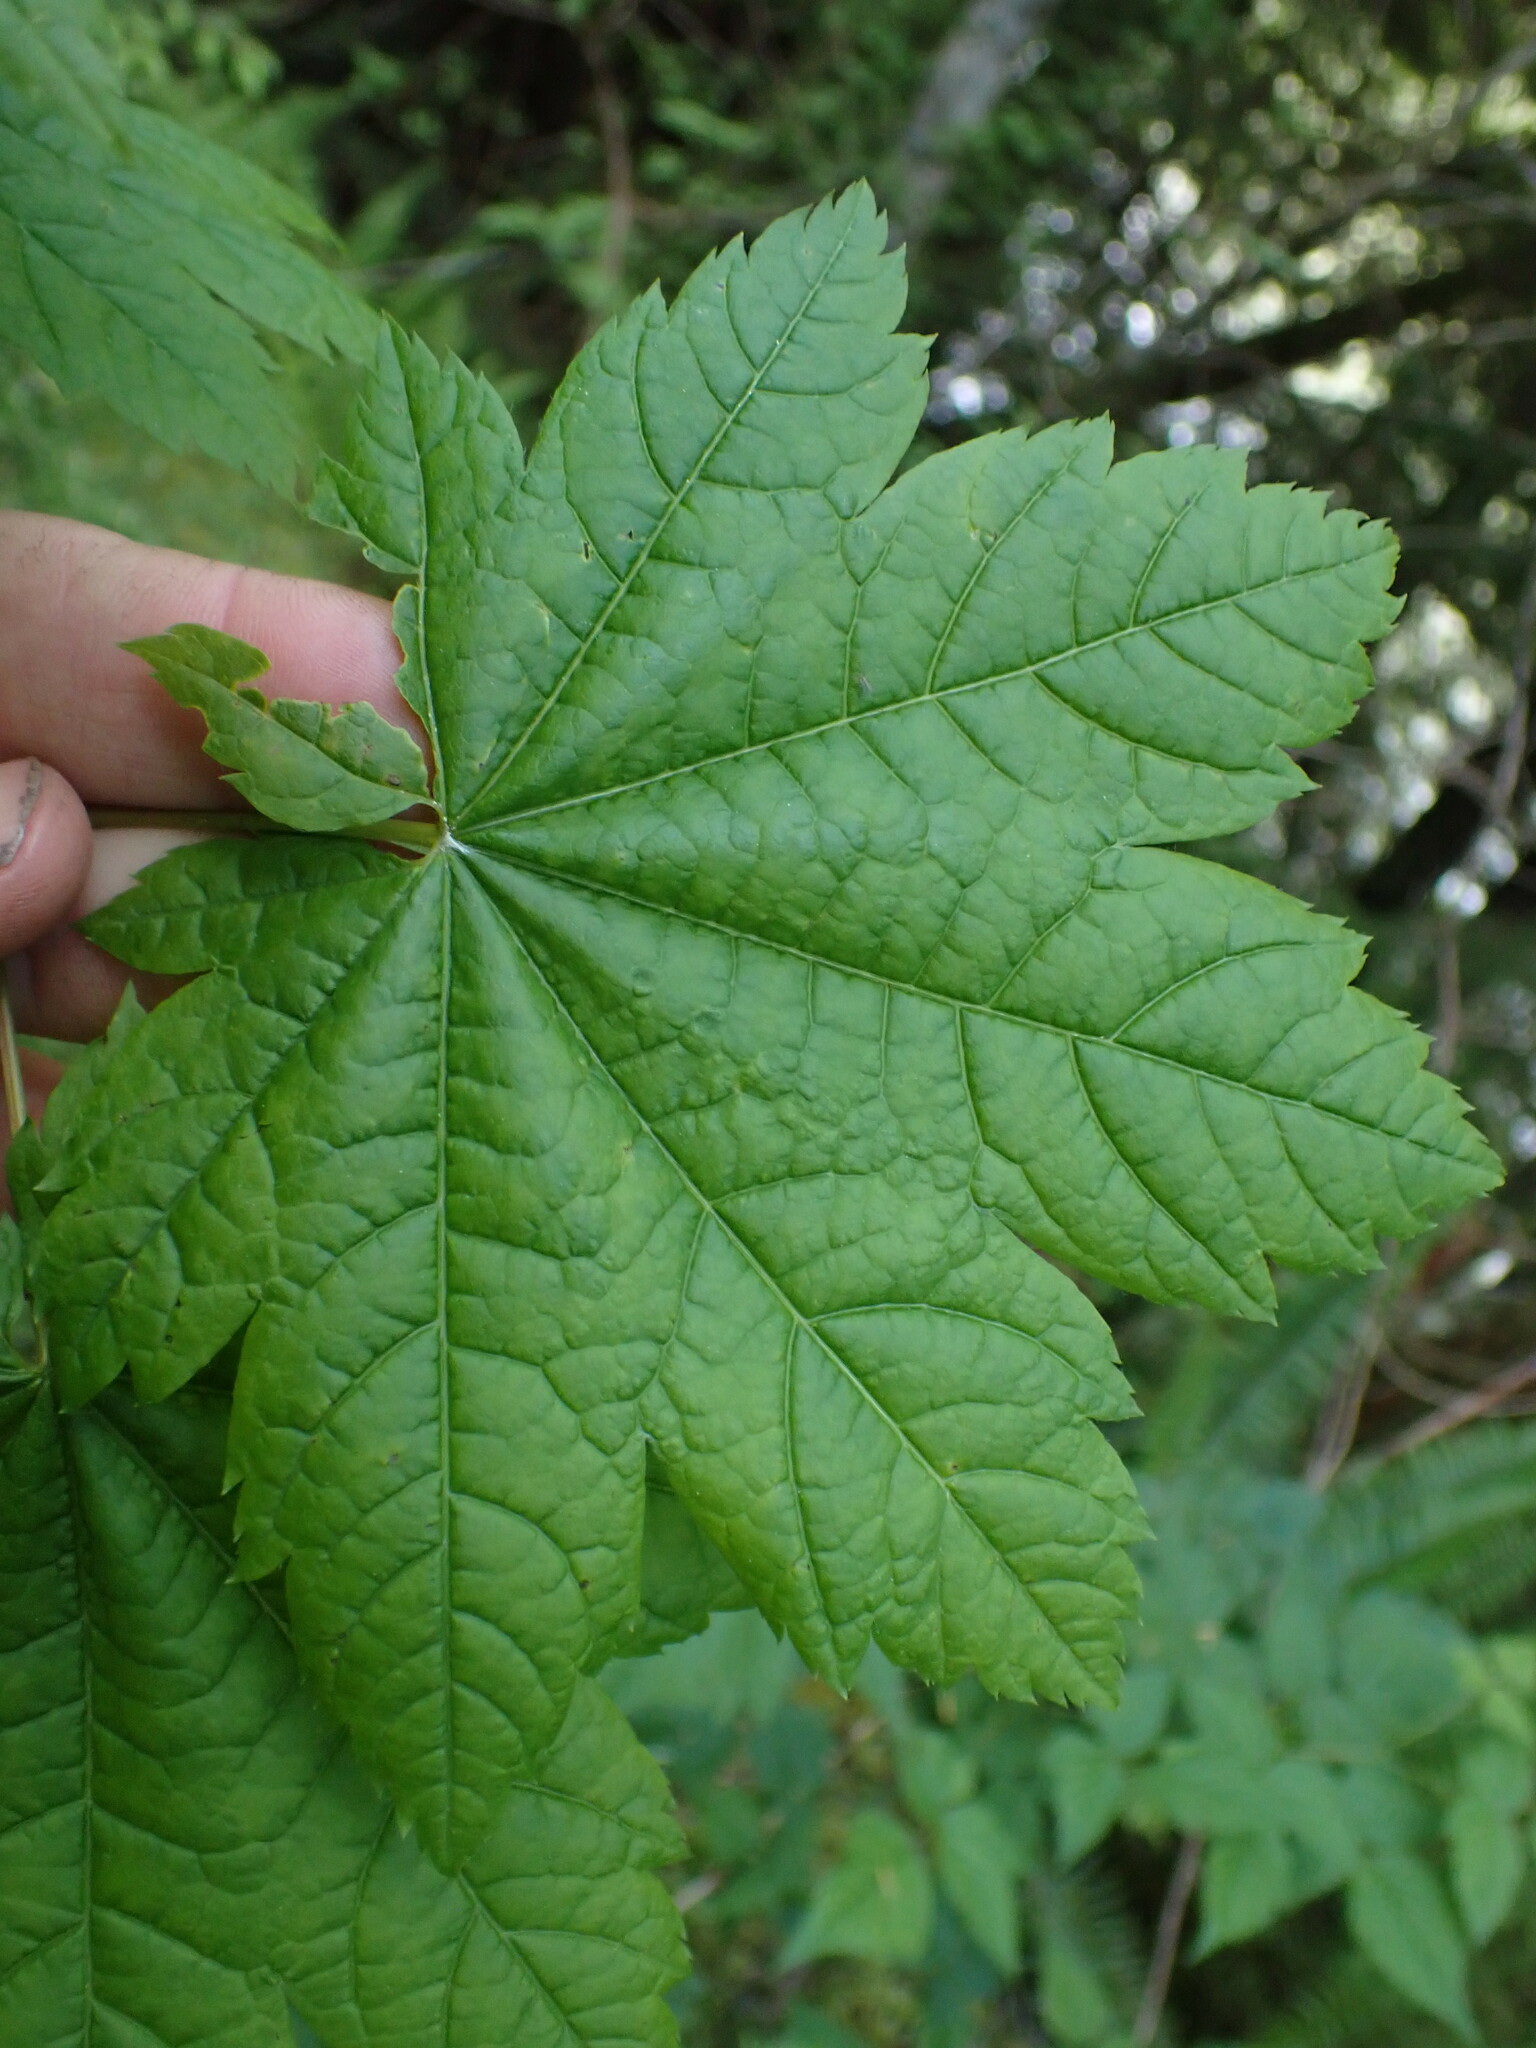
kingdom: Plantae
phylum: Tracheophyta
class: Magnoliopsida
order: Sapindales
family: Sapindaceae
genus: Acer
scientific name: Acer circinatum
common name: Vine maple
